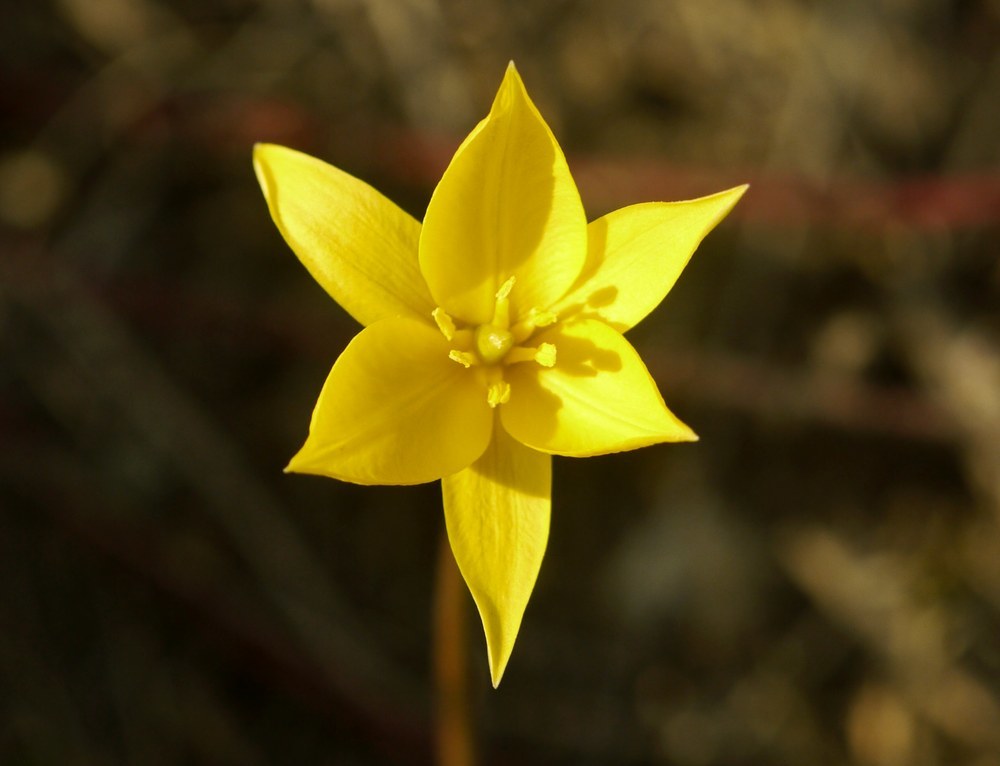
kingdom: Plantae
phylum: Tracheophyta
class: Liliopsida
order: Liliales
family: Liliaceae
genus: Tulipa
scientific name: Tulipa sylvestris
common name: Wild tulip
